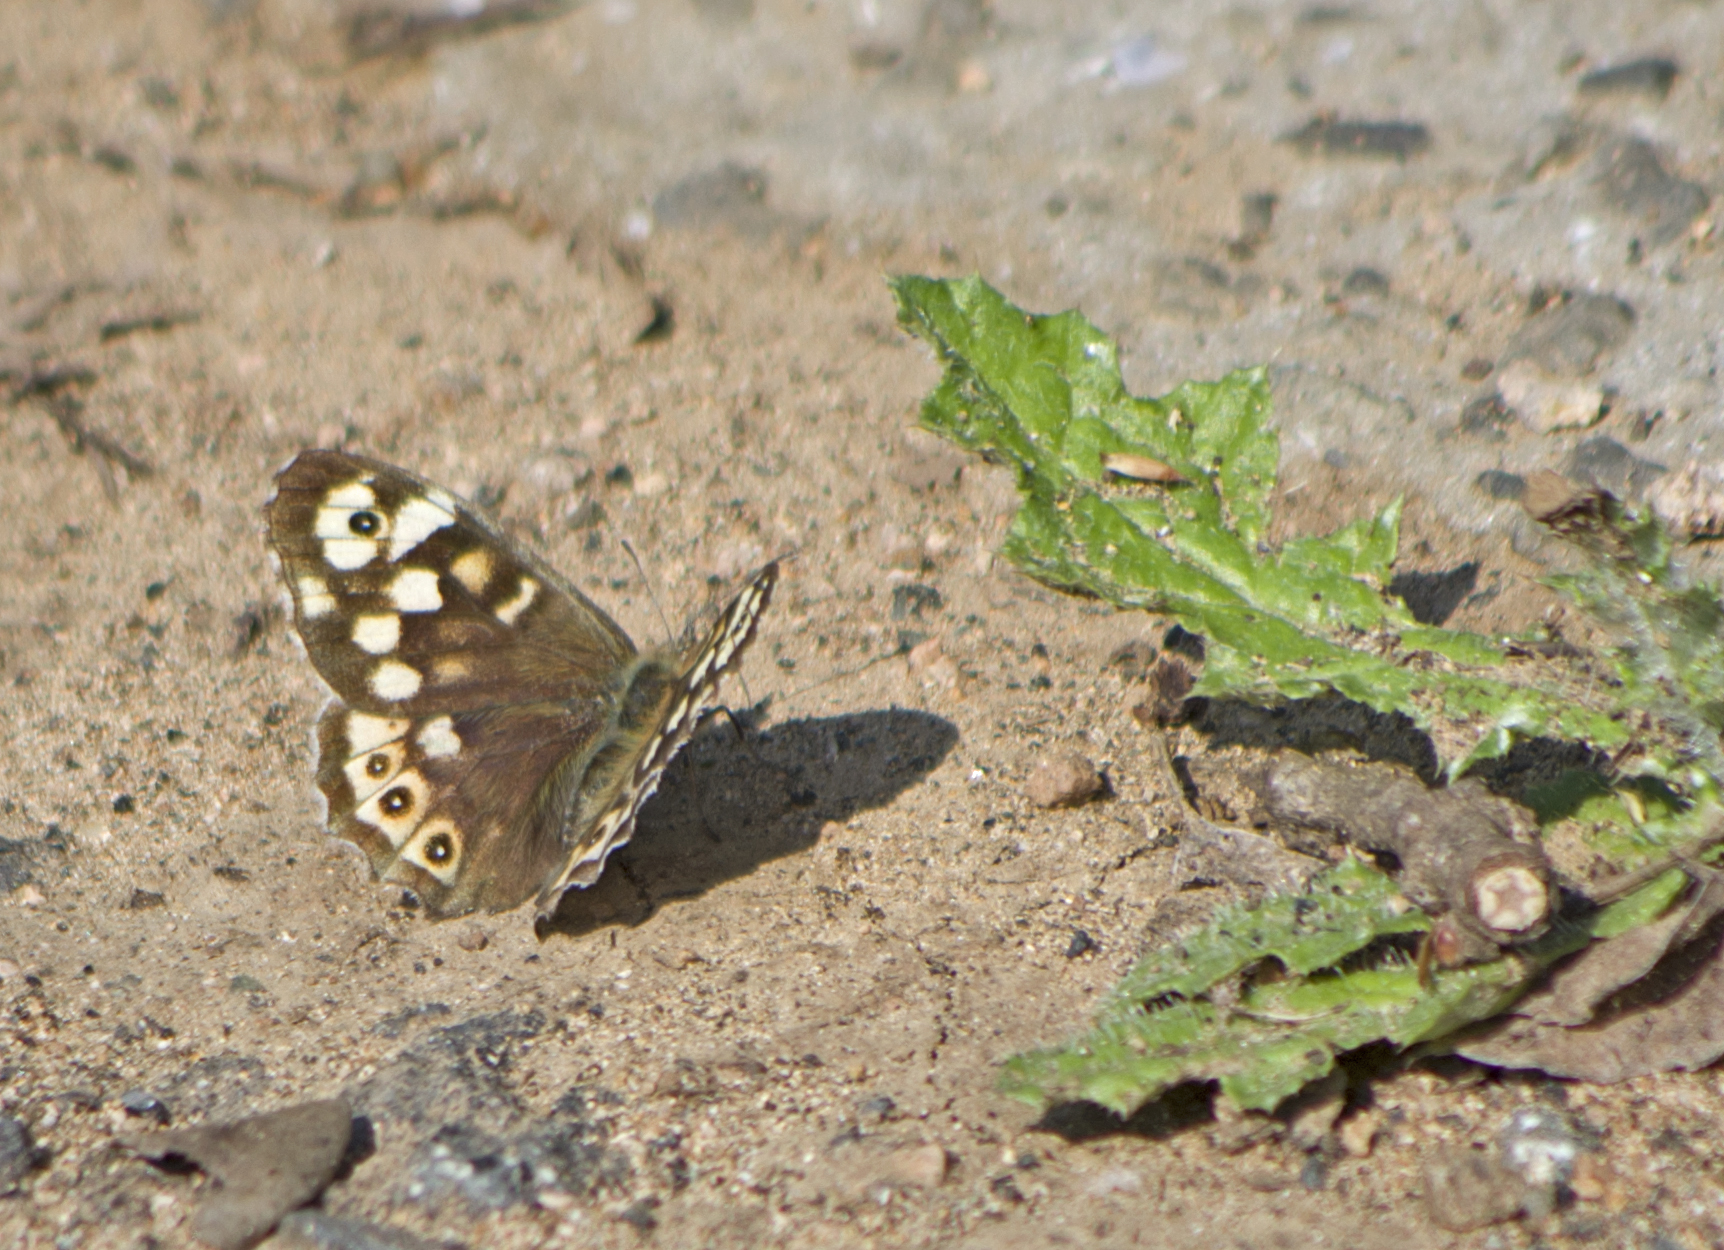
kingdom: Animalia
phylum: Arthropoda
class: Insecta
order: Lepidoptera
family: Nymphalidae
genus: Pararge
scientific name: Pararge aegeria
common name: Speckled wood
